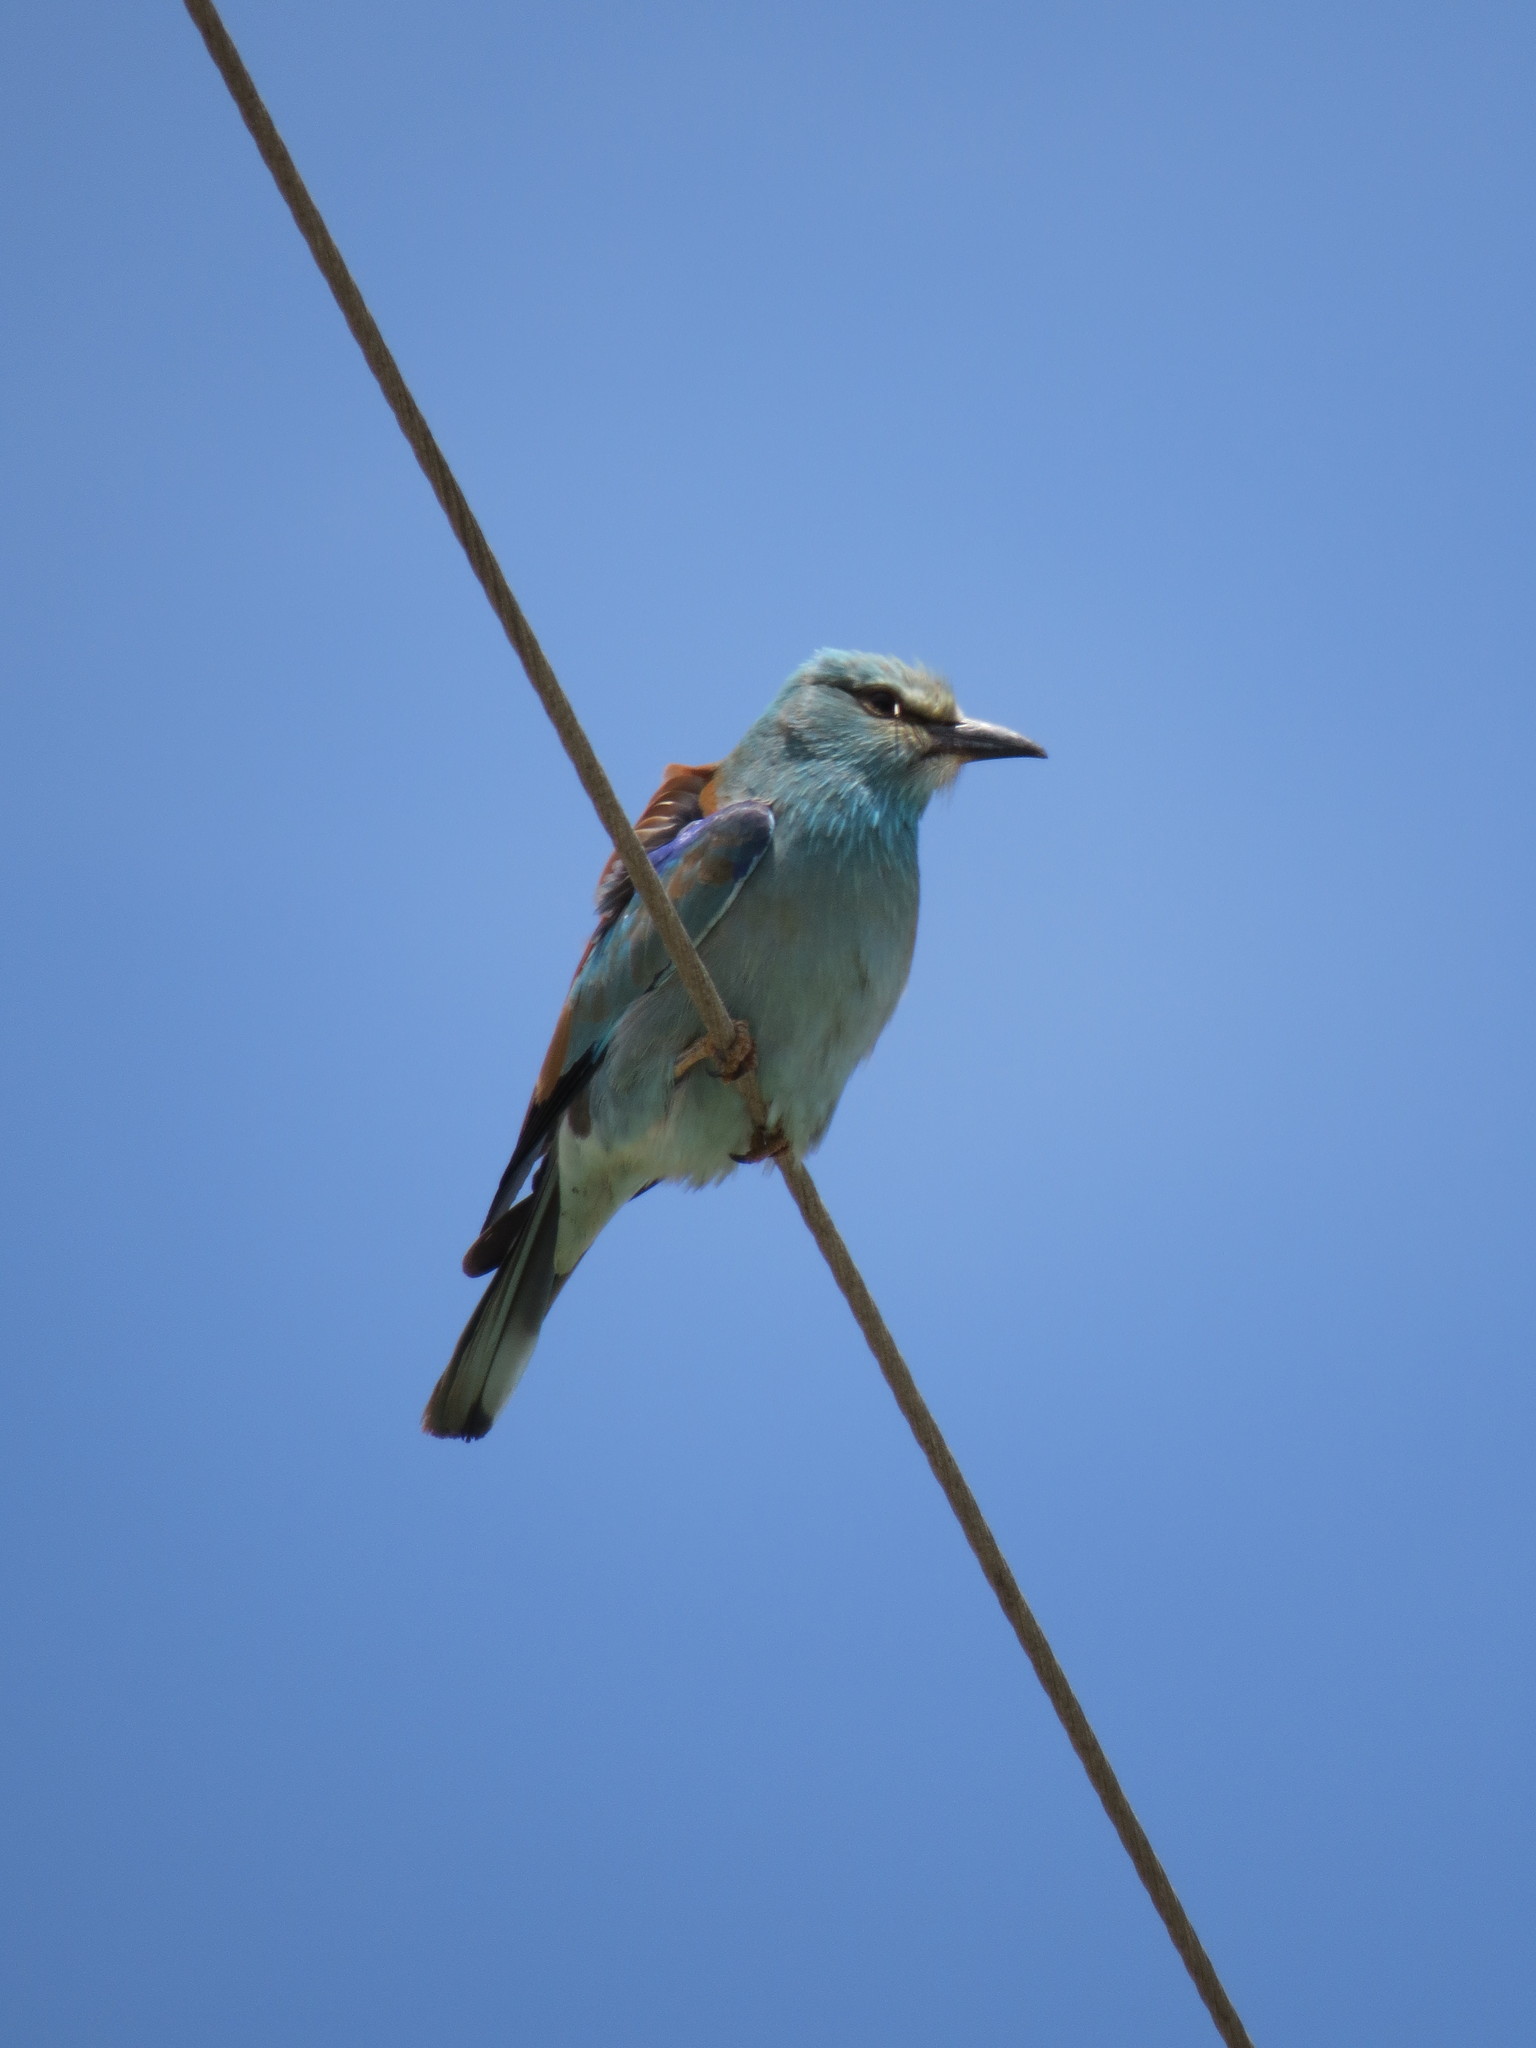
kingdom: Animalia
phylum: Chordata
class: Aves
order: Coraciiformes
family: Coraciidae
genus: Coracias
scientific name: Coracias garrulus
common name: European roller
